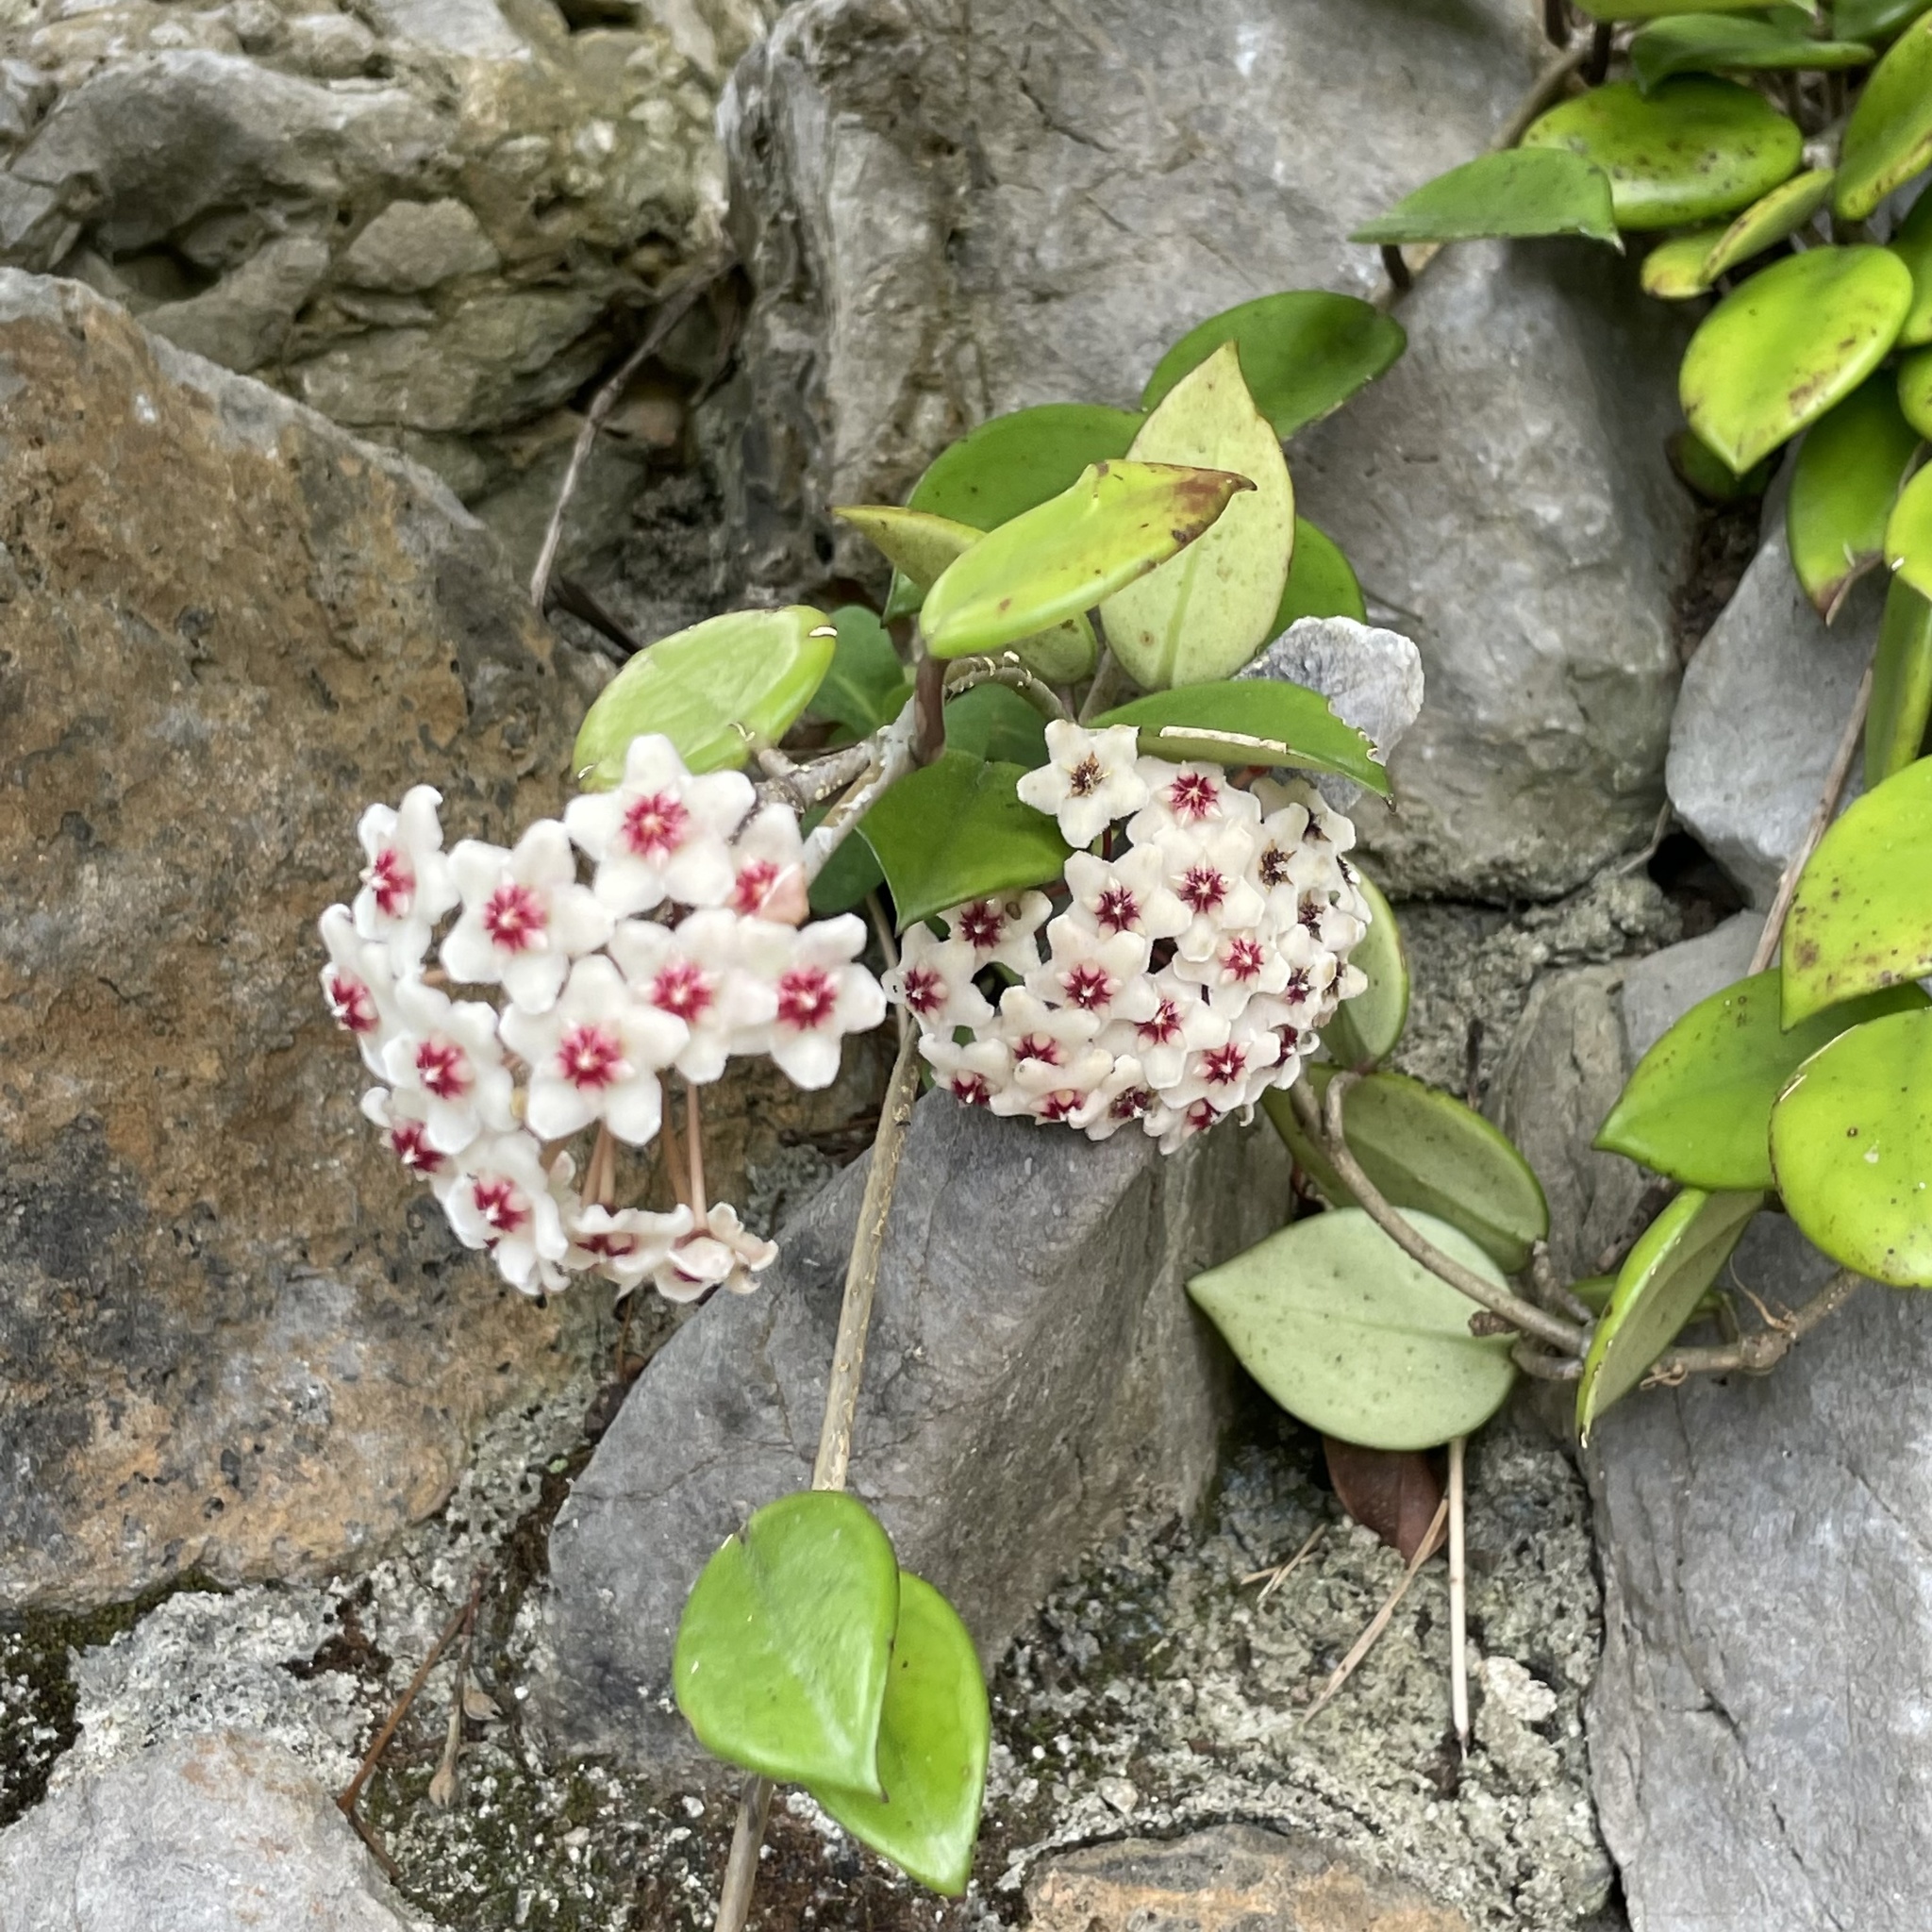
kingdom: Plantae
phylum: Tracheophyta
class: Magnoliopsida
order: Gentianales
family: Apocynaceae
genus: Hoya
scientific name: Hoya carnosa
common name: Honeyplant
